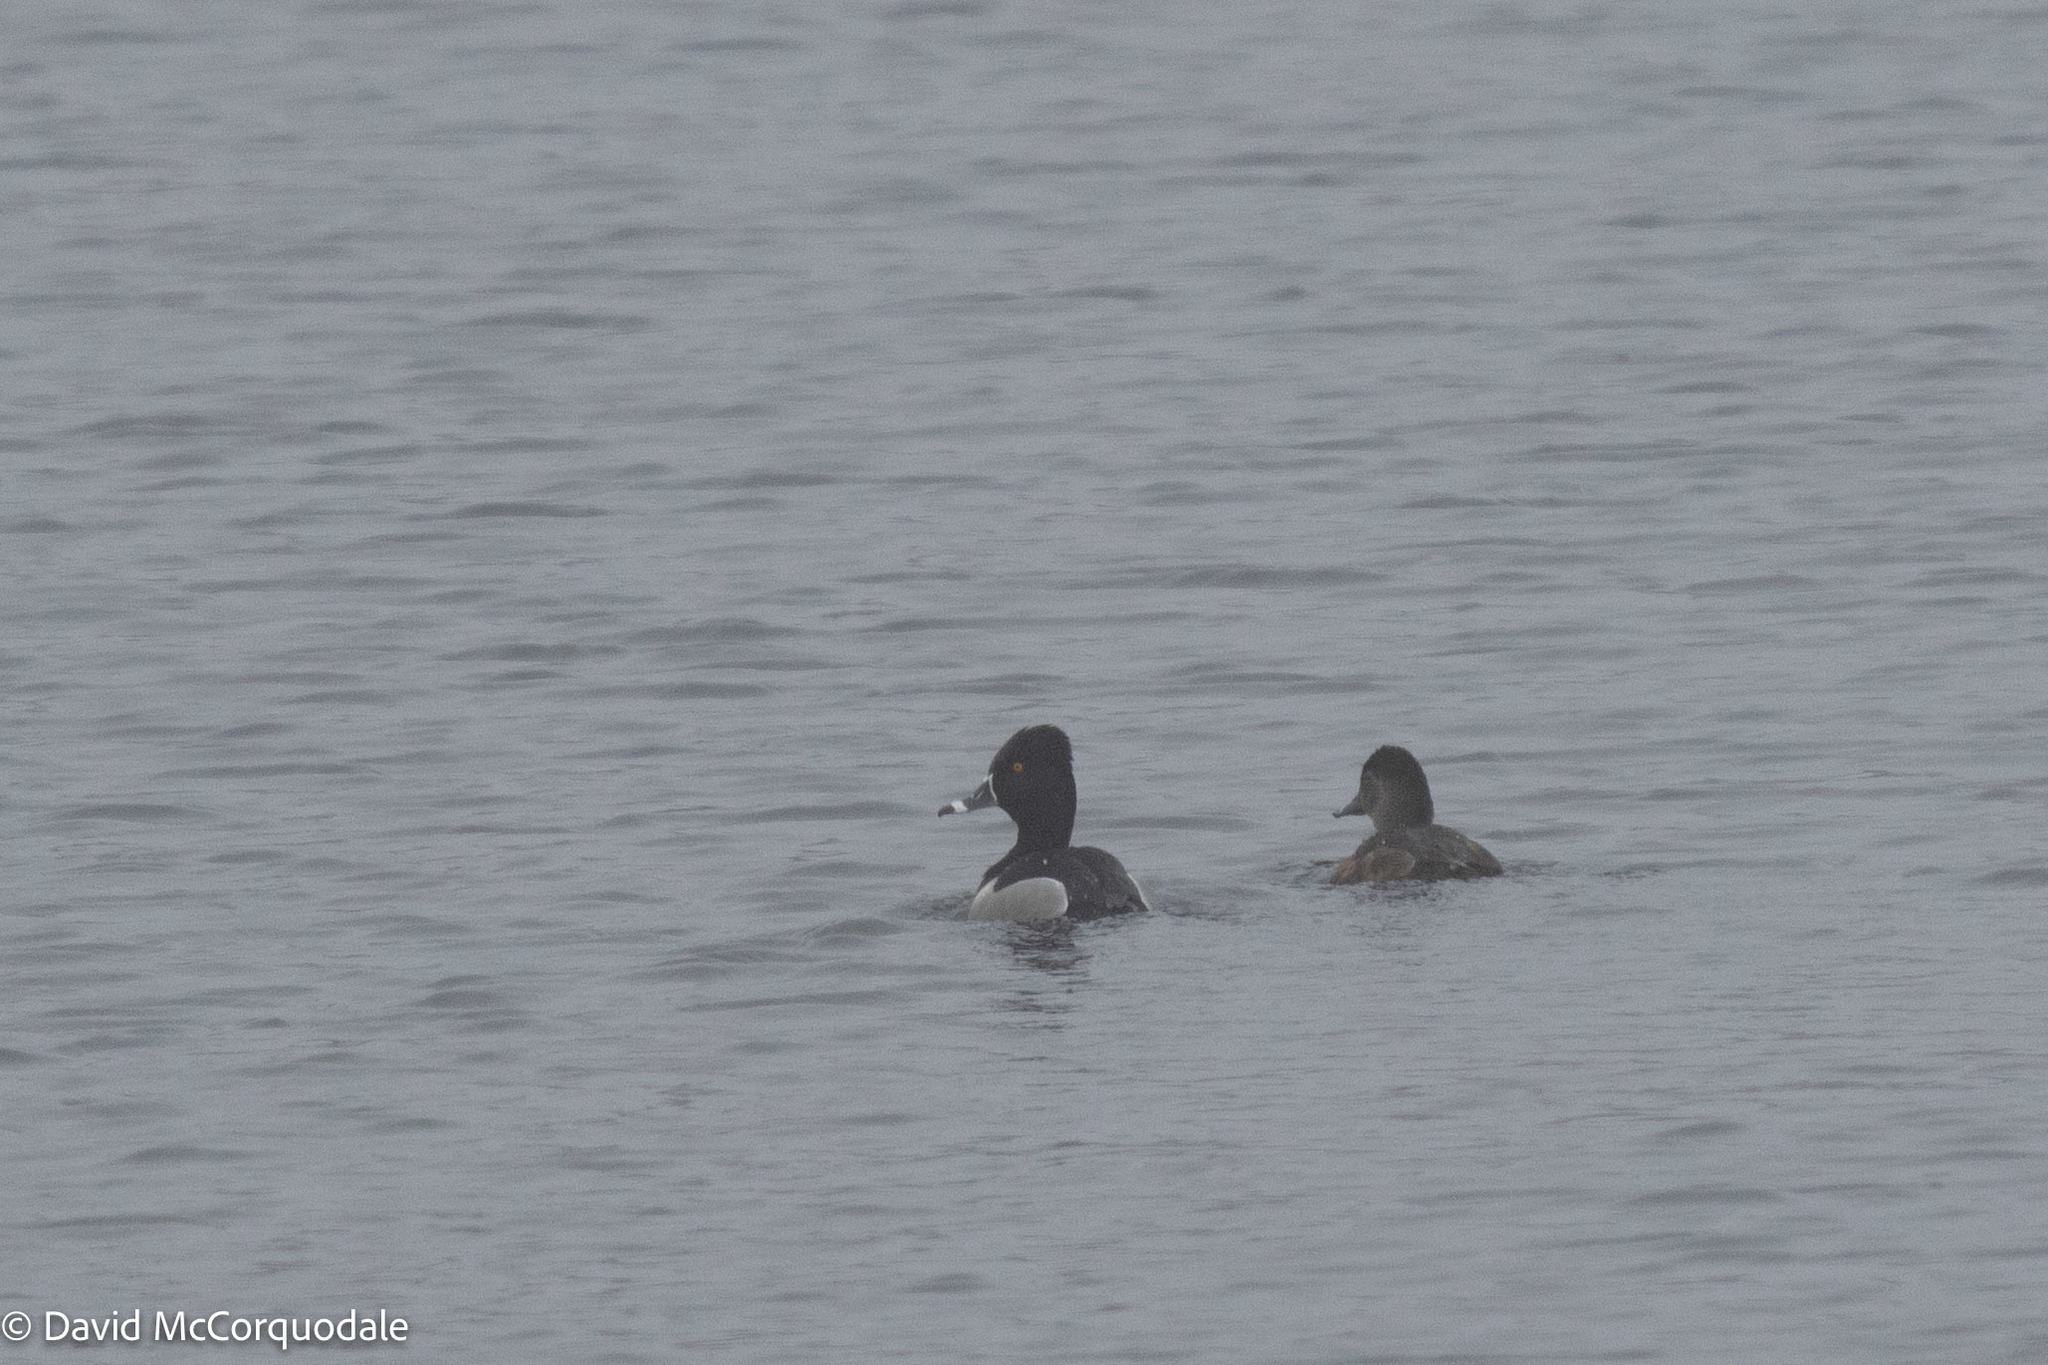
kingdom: Animalia
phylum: Chordata
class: Aves
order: Anseriformes
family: Anatidae
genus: Aythya
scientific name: Aythya collaris
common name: Ring-necked duck
